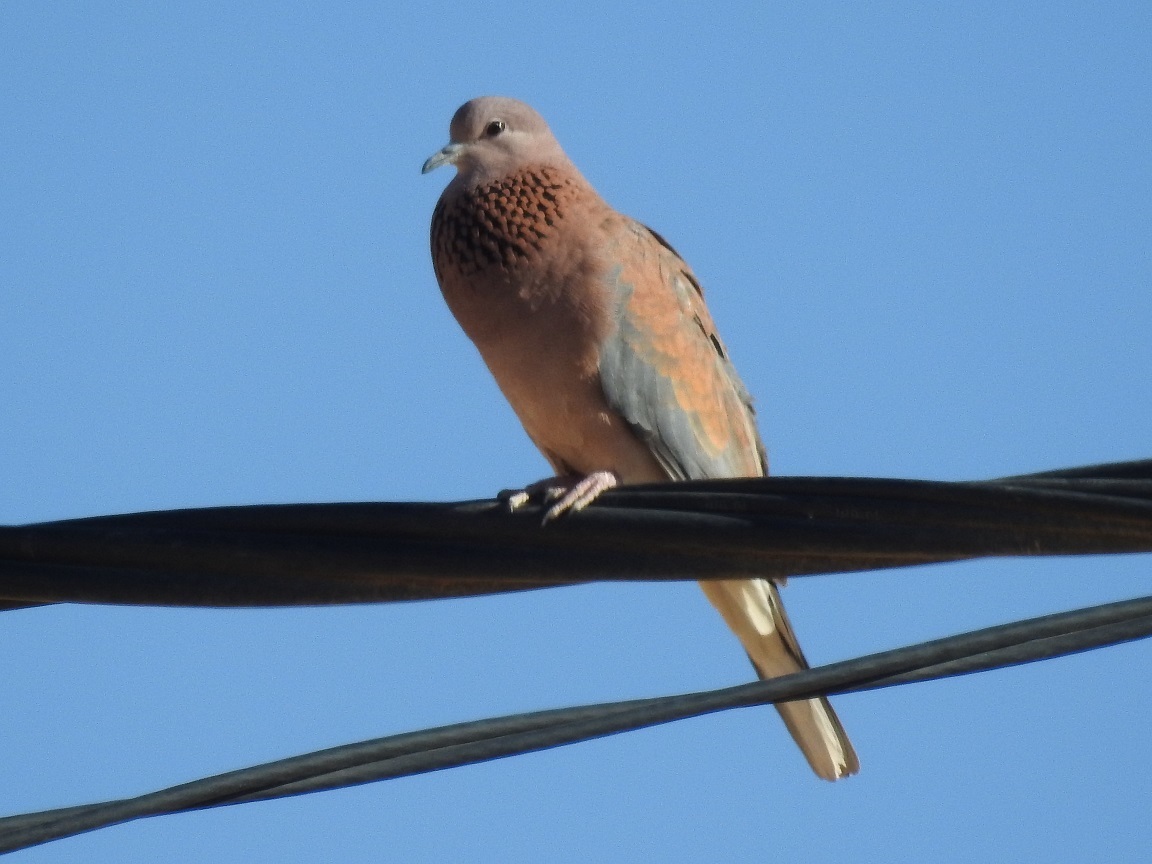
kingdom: Animalia
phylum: Chordata
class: Aves
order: Columbiformes
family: Columbidae
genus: Spilopelia
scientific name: Spilopelia senegalensis
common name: Laughing dove
